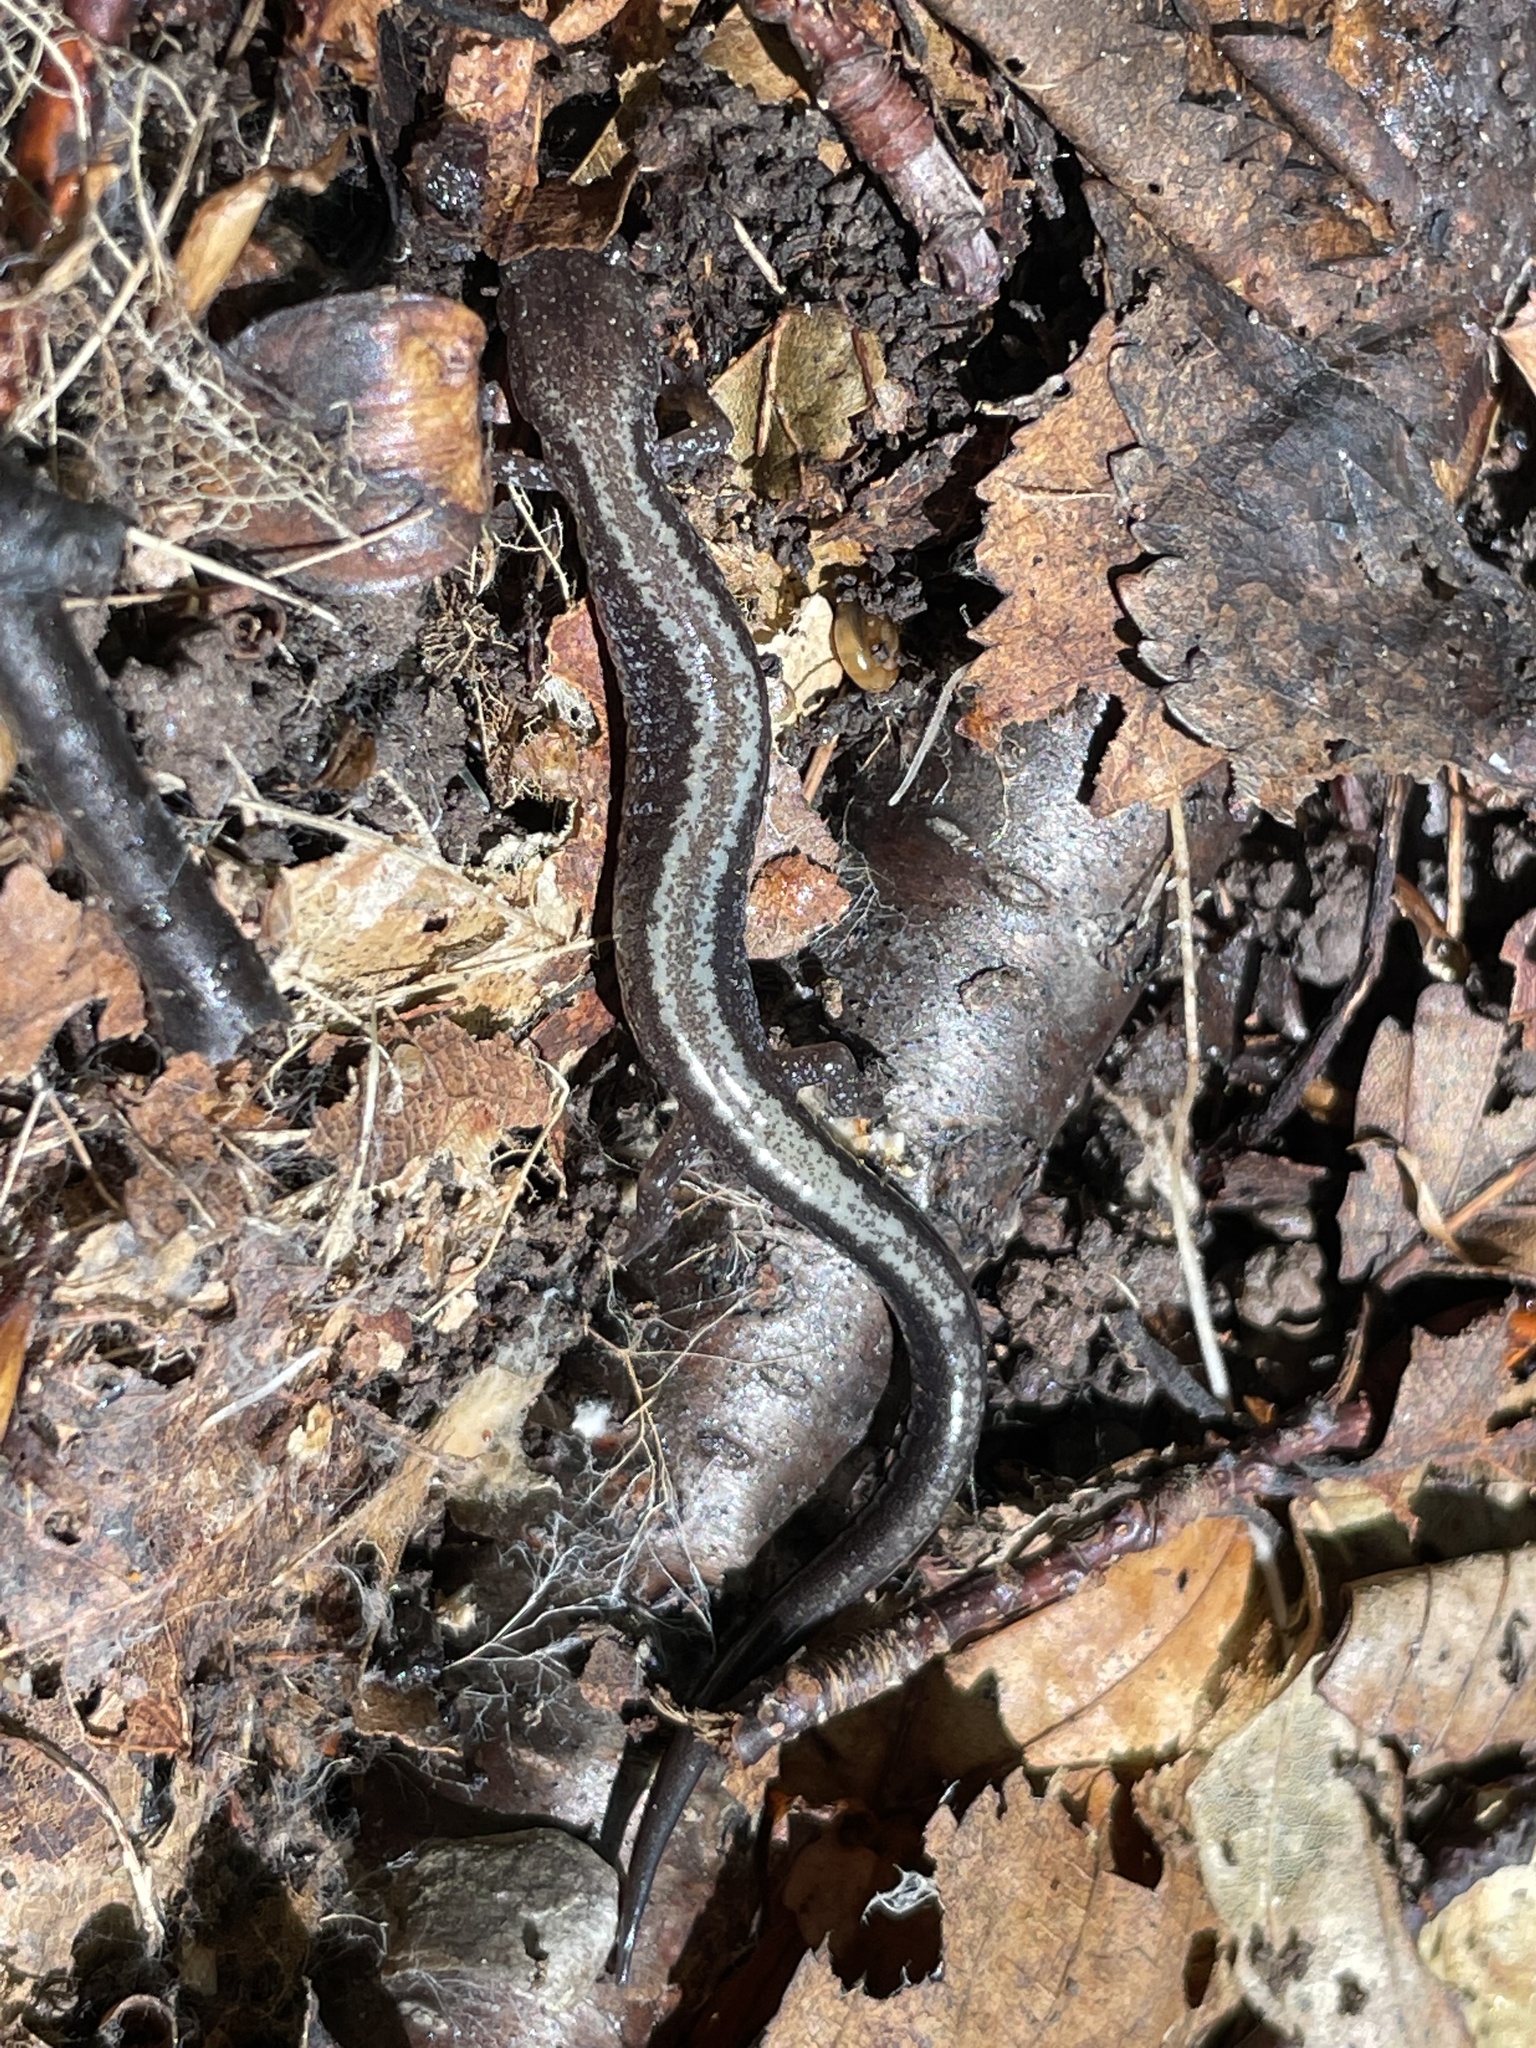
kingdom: Animalia
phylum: Chordata
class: Amphibia
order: Caudata
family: Plethodontidae
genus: Plethodon
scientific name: Plethodon cinereus
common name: Redback salamander
